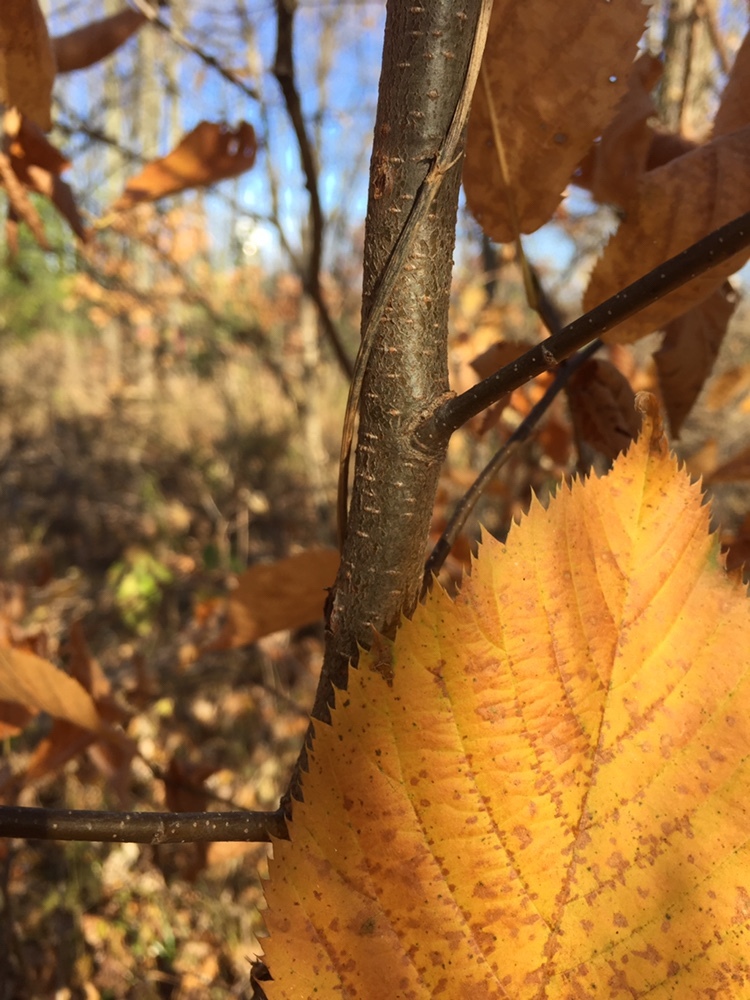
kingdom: Plantae
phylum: Tracheophyta
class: Magnoliopsida
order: Fagales
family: Betulaceae
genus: Ostrya
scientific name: Ostrya virginiana
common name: Ironwood
